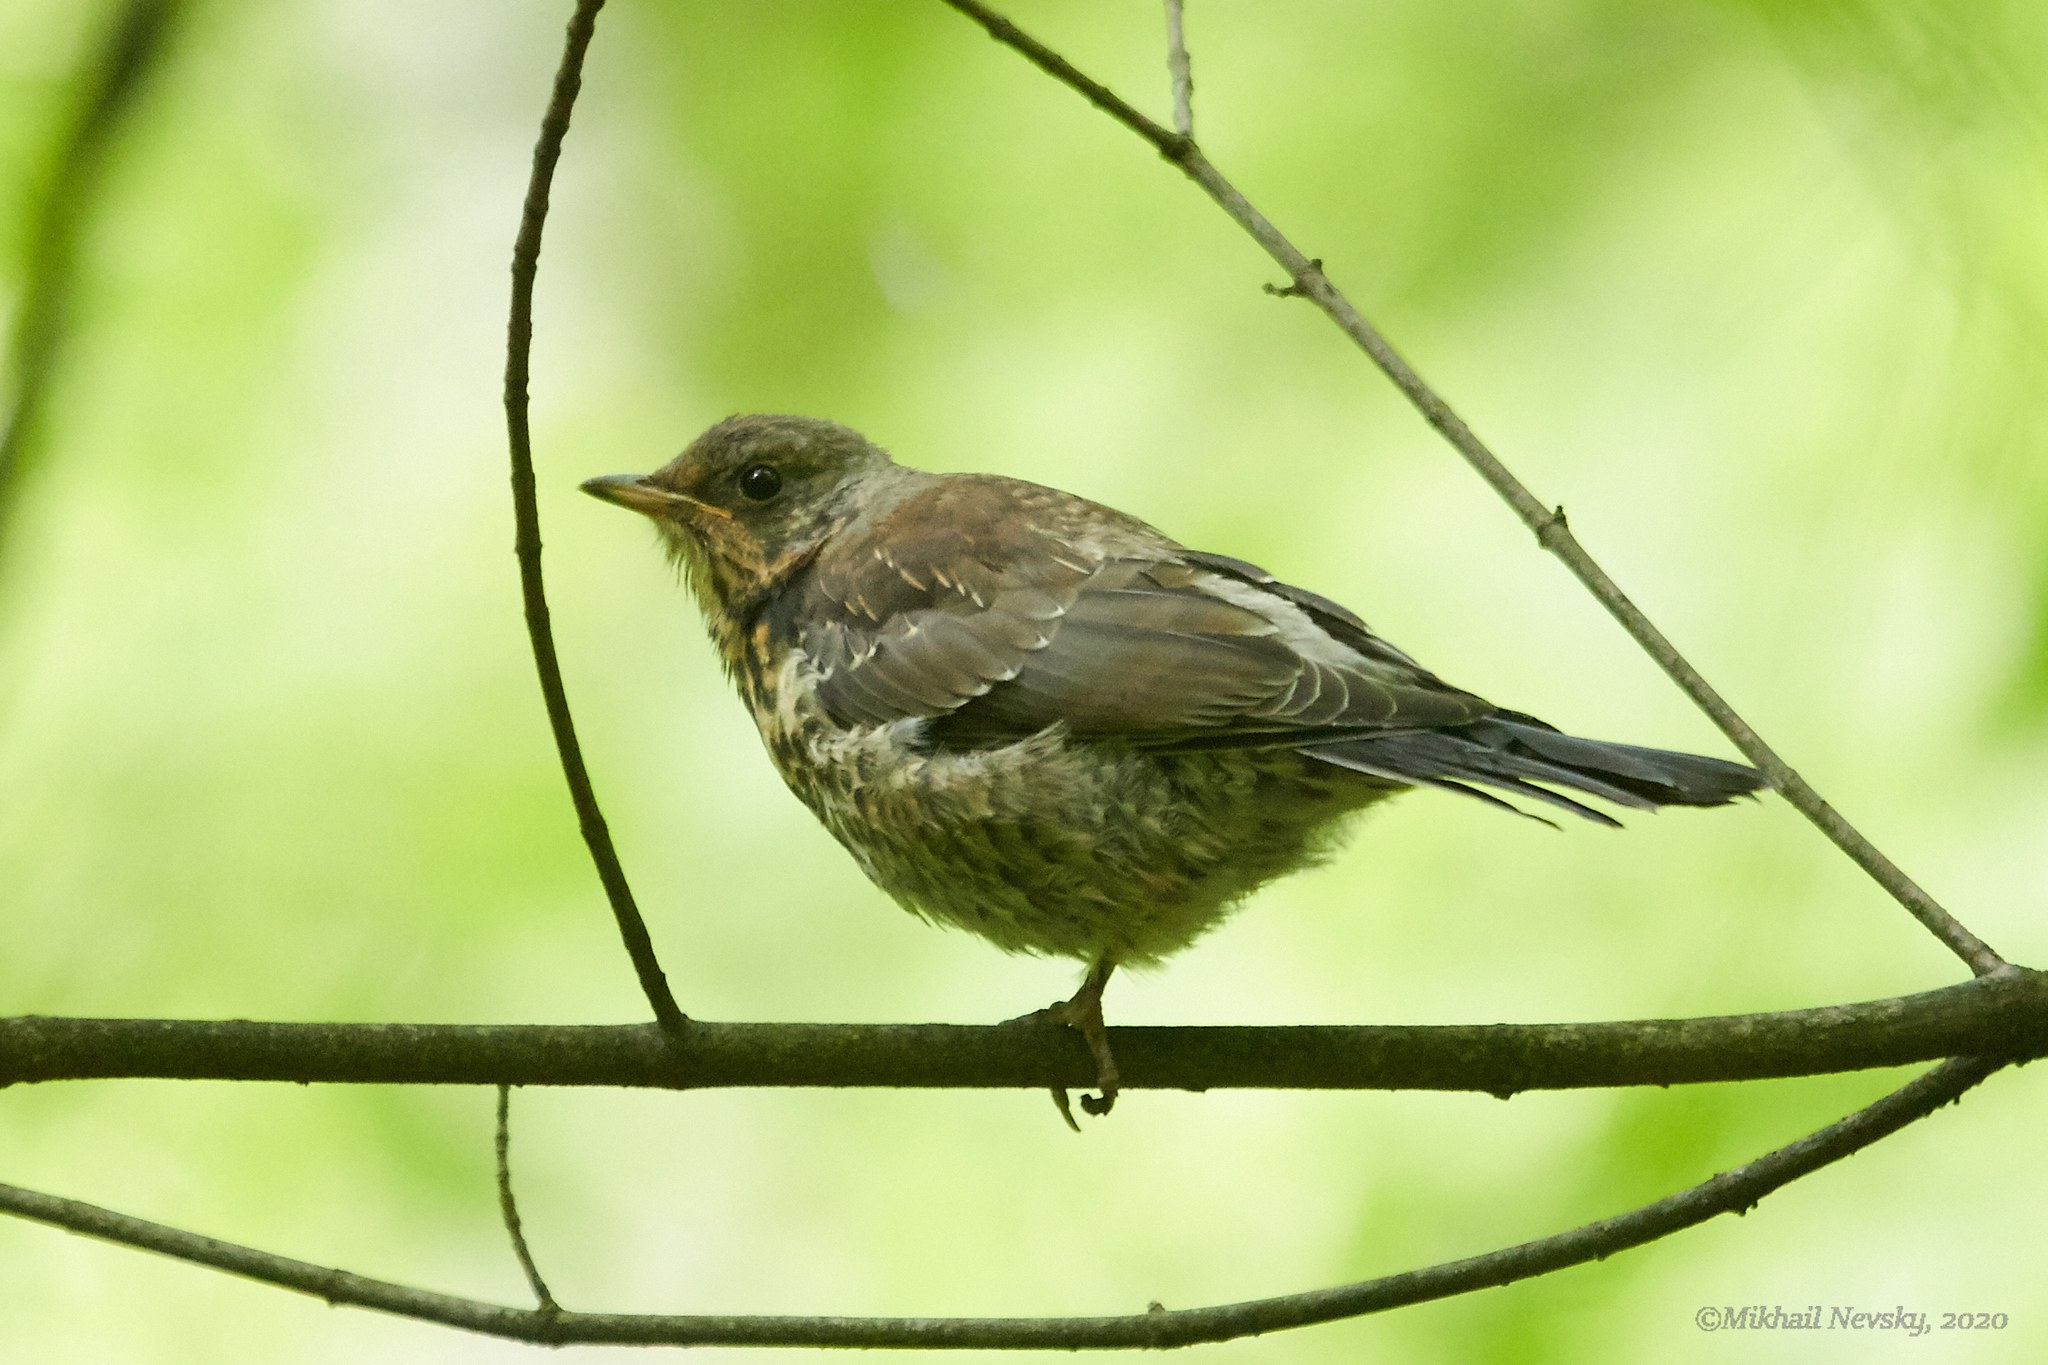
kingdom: Animalia
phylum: Chordata
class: Aves
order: Passeriformes
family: Turdidae
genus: Turdus
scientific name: Turdus pilaris
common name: Fieldfare
